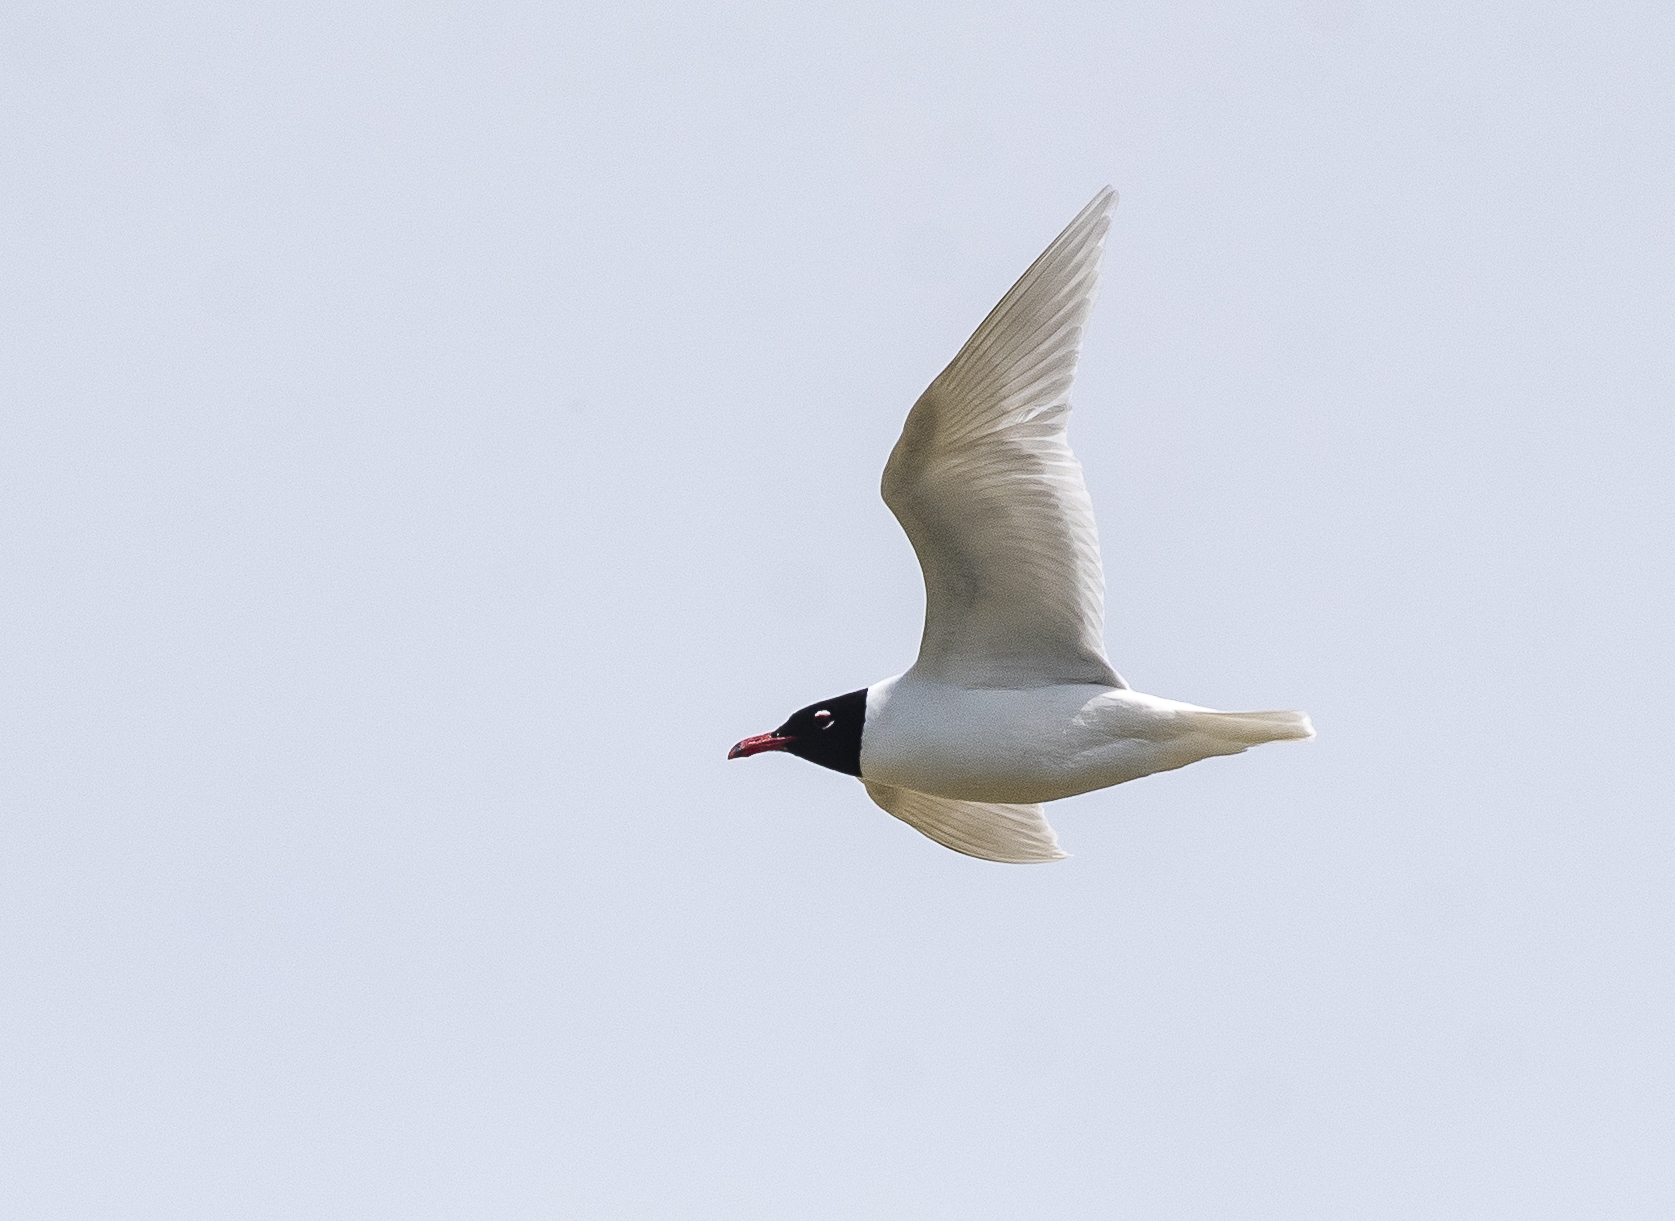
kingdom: Animalia
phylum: Chordata
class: Aves
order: Charadriiformes
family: Laridae
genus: Ichthyaetus
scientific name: Ichthyaetus melanocephalus
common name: Mediterranean gull
